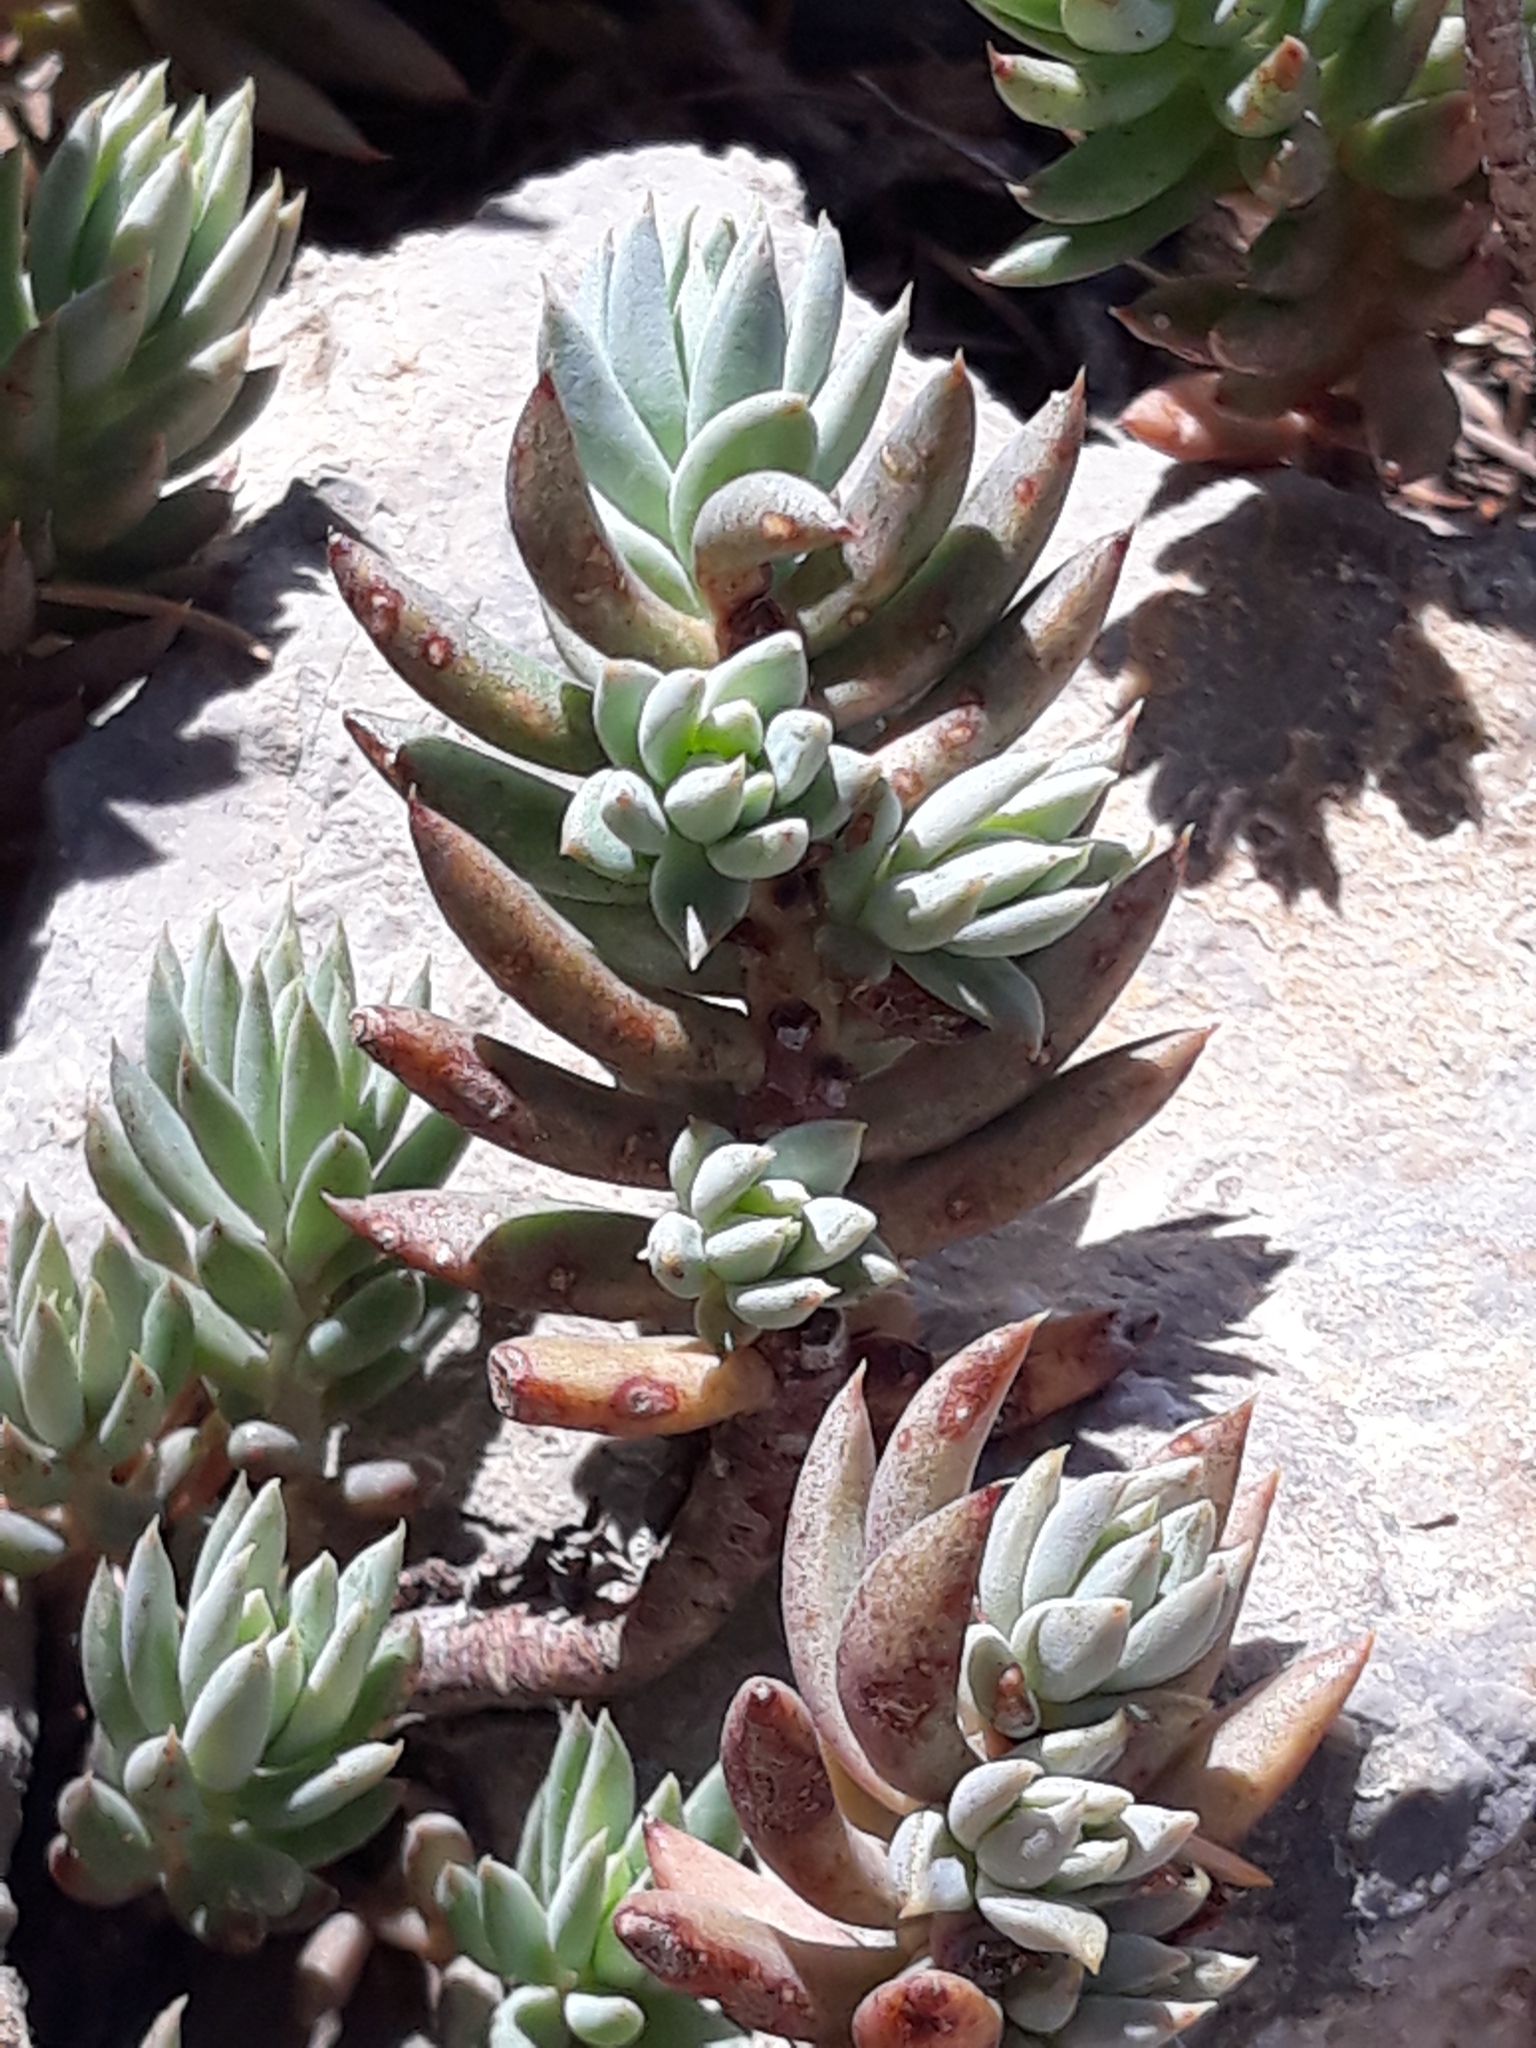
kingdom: Plantae
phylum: Tracheophyta
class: Magnoliopsida
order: Saxifragales
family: Crassulaceae
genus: Petrosedum
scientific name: Petrosedum sediforme
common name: Pale stonecrop
